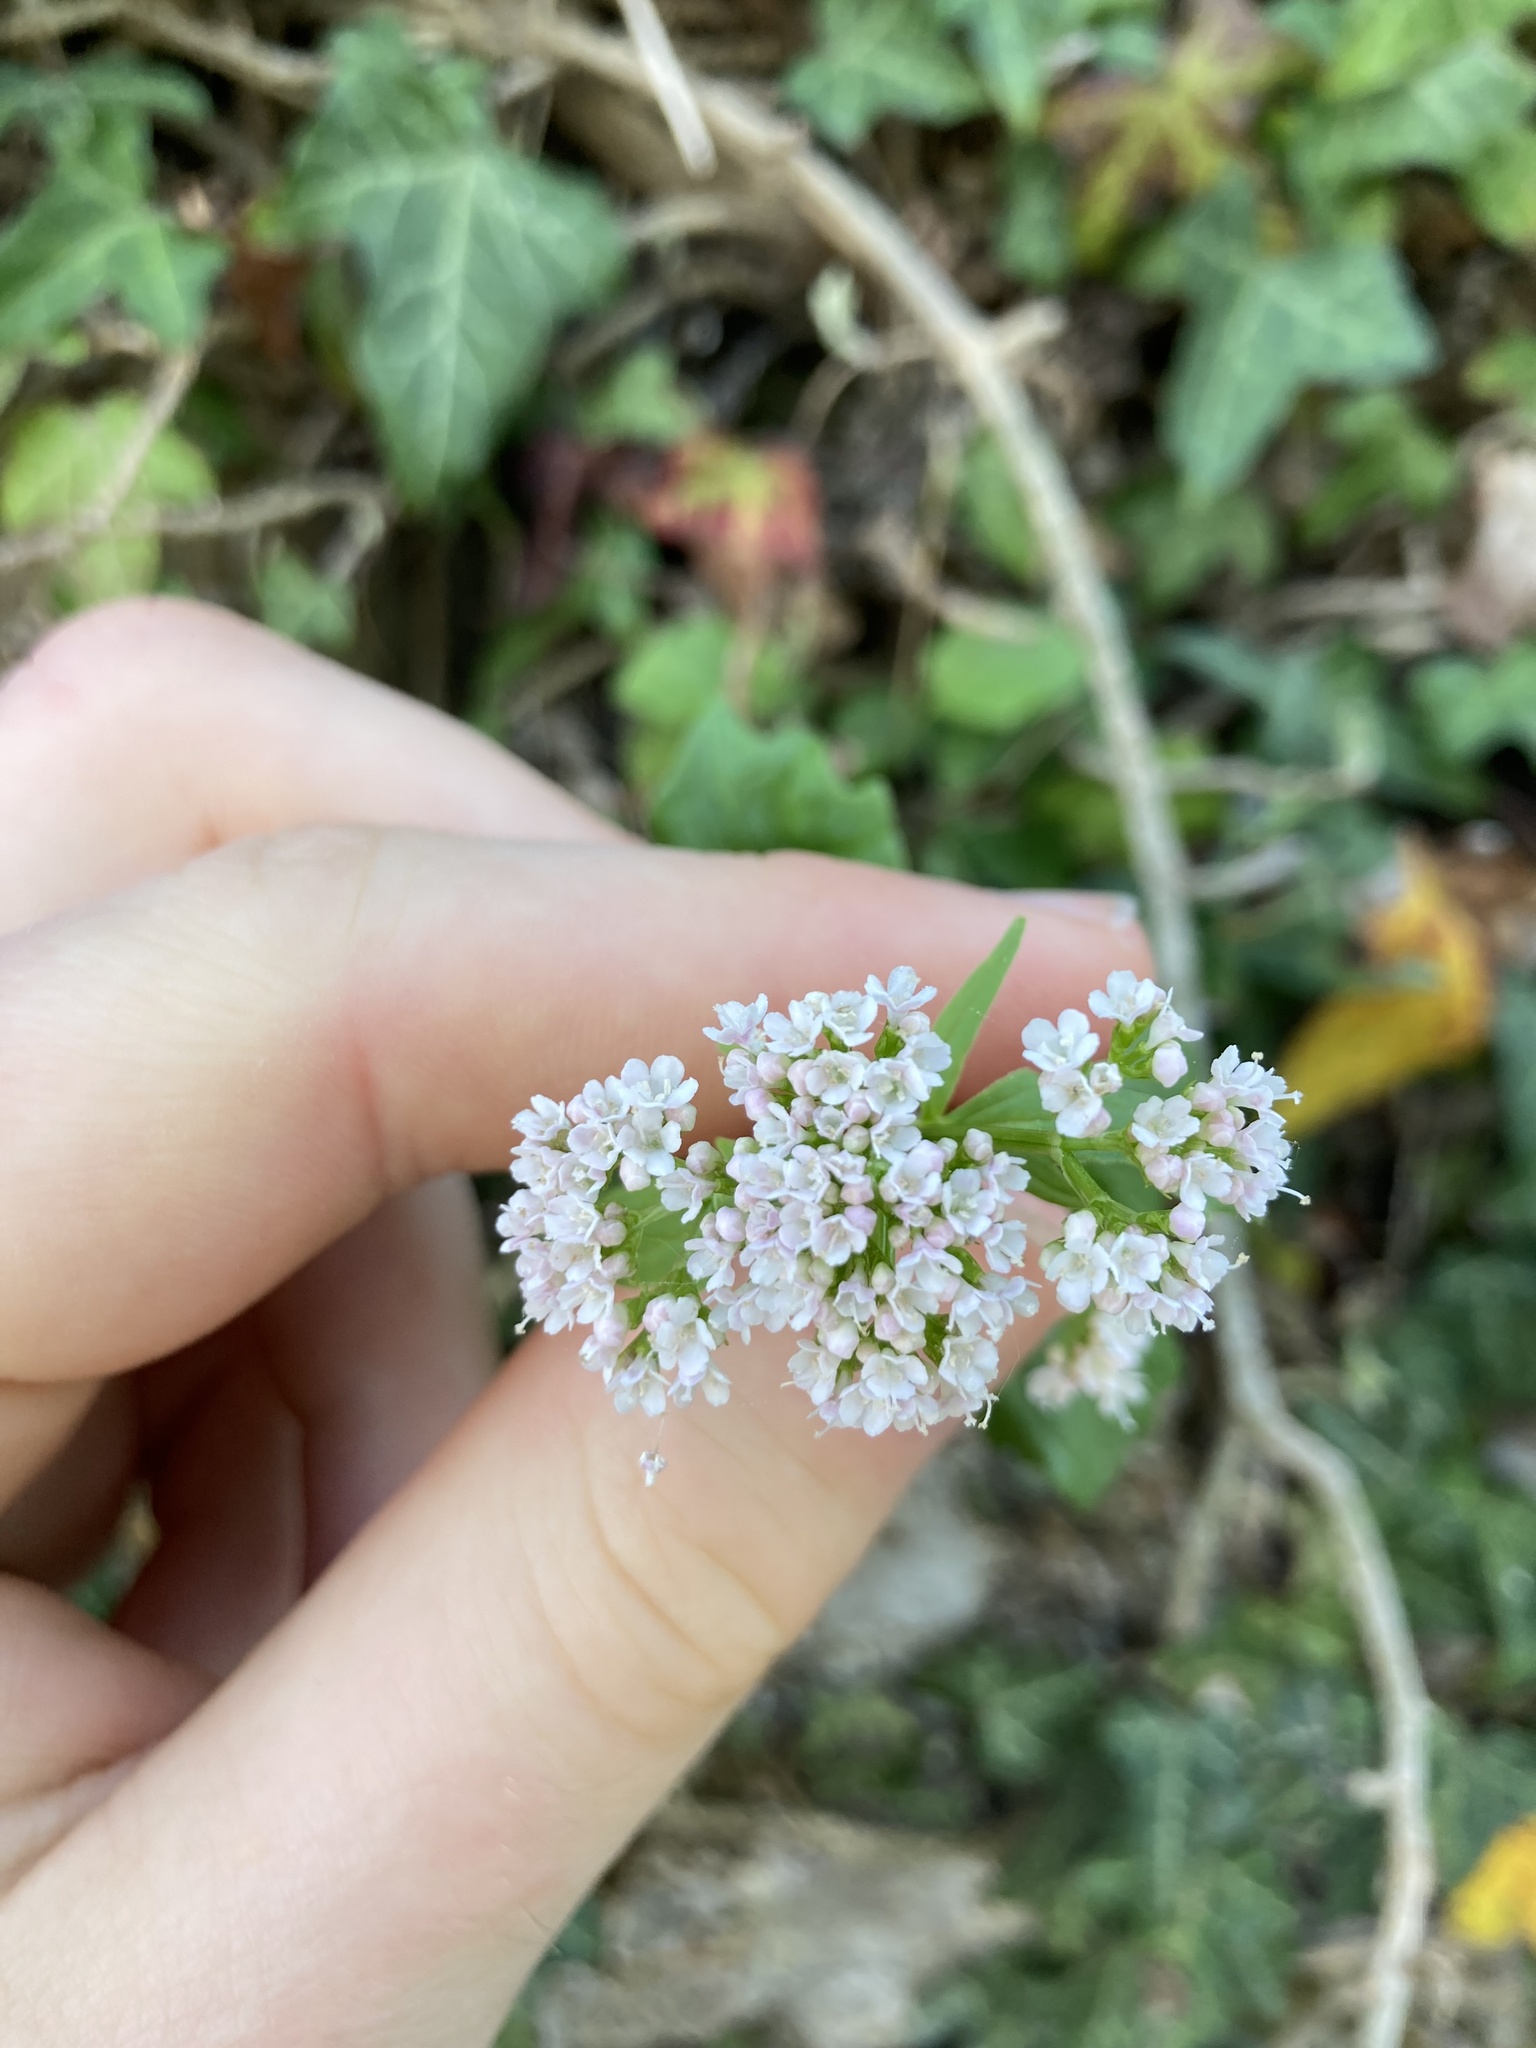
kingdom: Plantae
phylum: Tracheophyta
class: Magnoliopsida
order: Dipsacales
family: Caprifoliaceae
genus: Valeriana
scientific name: Valeriana tripteris
